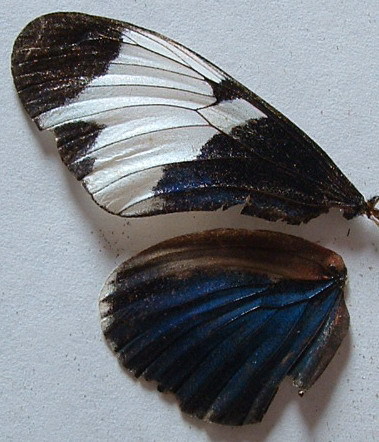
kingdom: Animalia
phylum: Arthropoda
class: Insecta
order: Lepidoptera
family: Nymphalidae
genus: Heliconius
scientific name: Heliconius sapho
